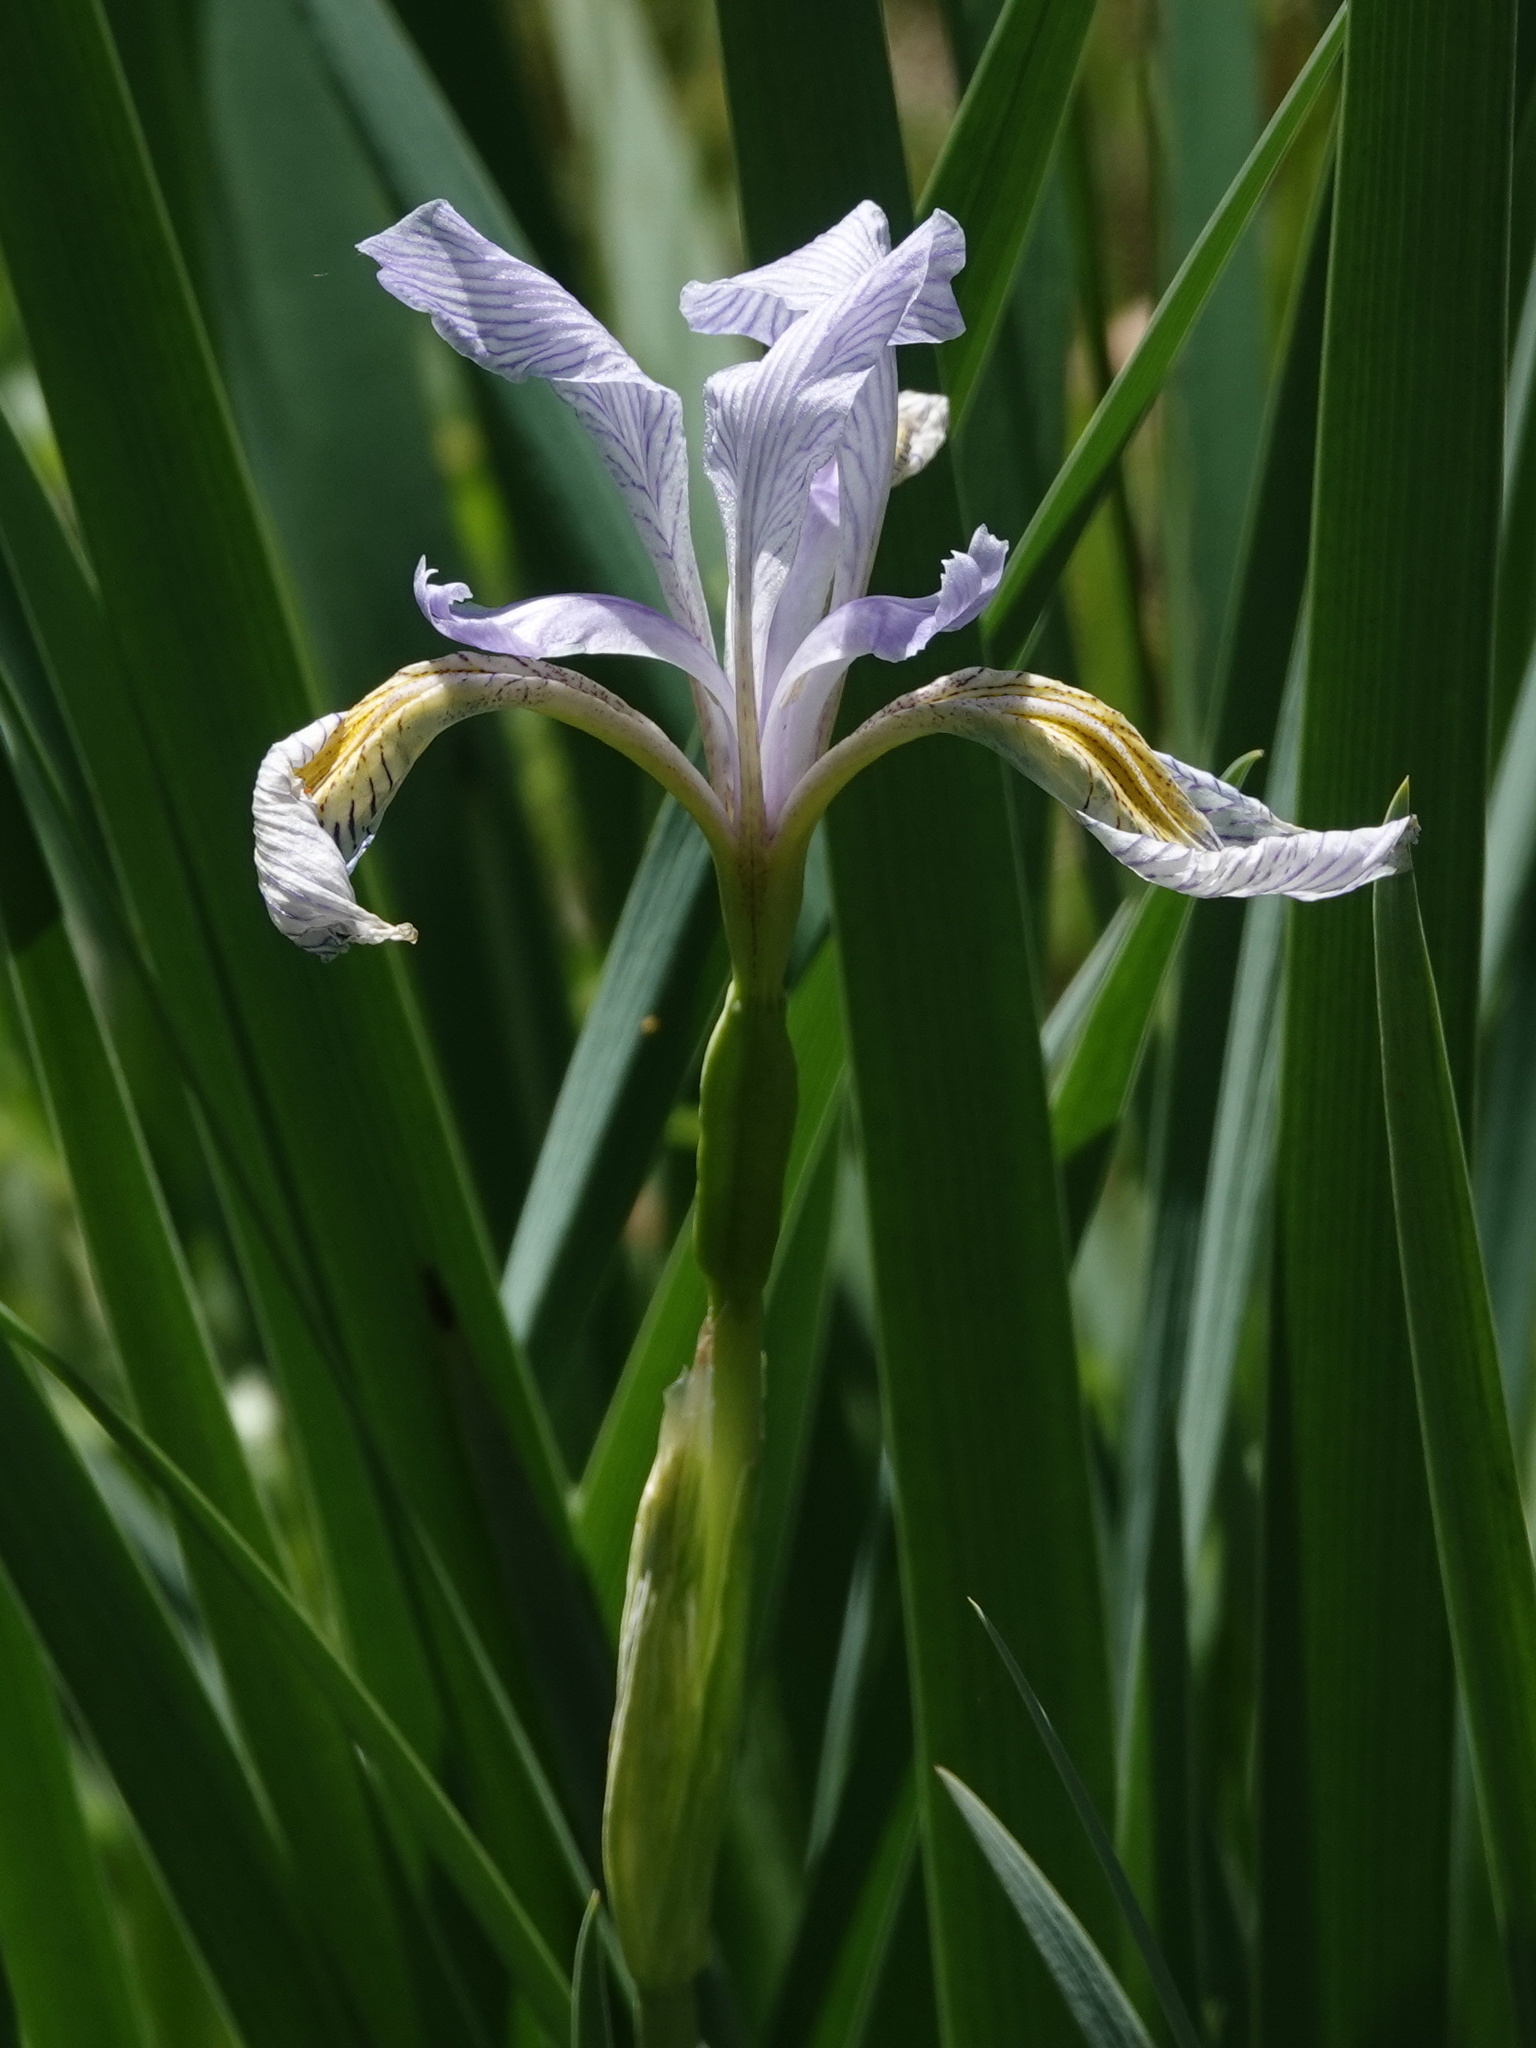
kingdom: Plantae
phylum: Tracheophyta
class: Liliopsida
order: Asparagales
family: Iridaceae
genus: Iris
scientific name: Iris missouriensis
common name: Rocky mountain iris
